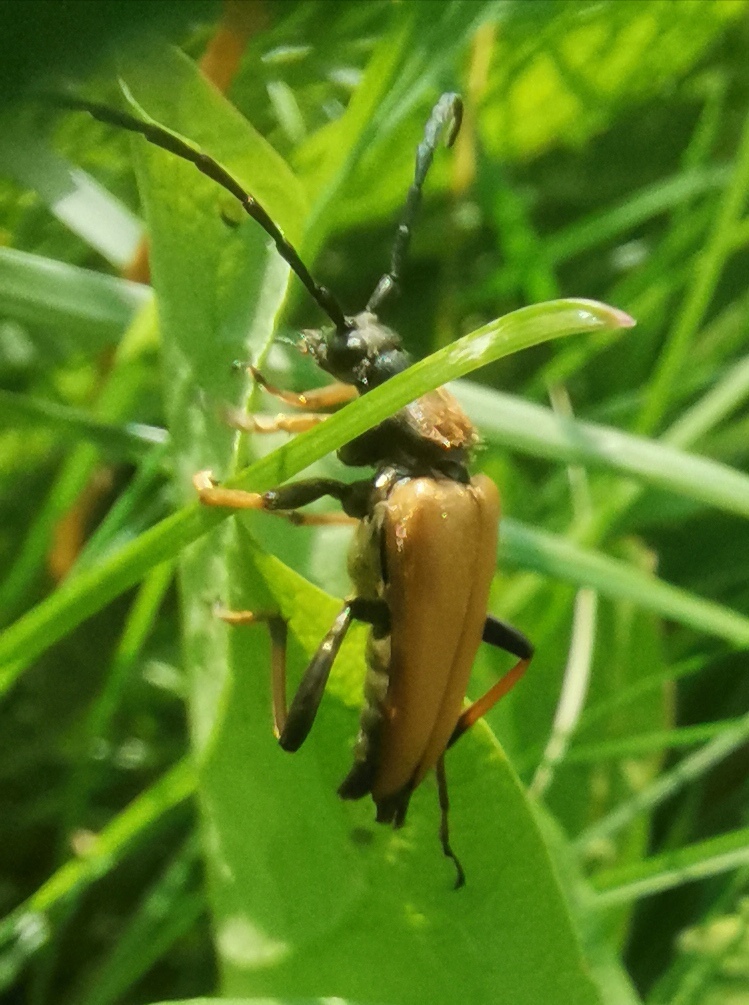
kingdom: Animalia
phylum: Arthropoda
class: Insecta
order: Coleoptera
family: Cerambycidae
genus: Stictoleptura
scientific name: Stictoleptura rubra
